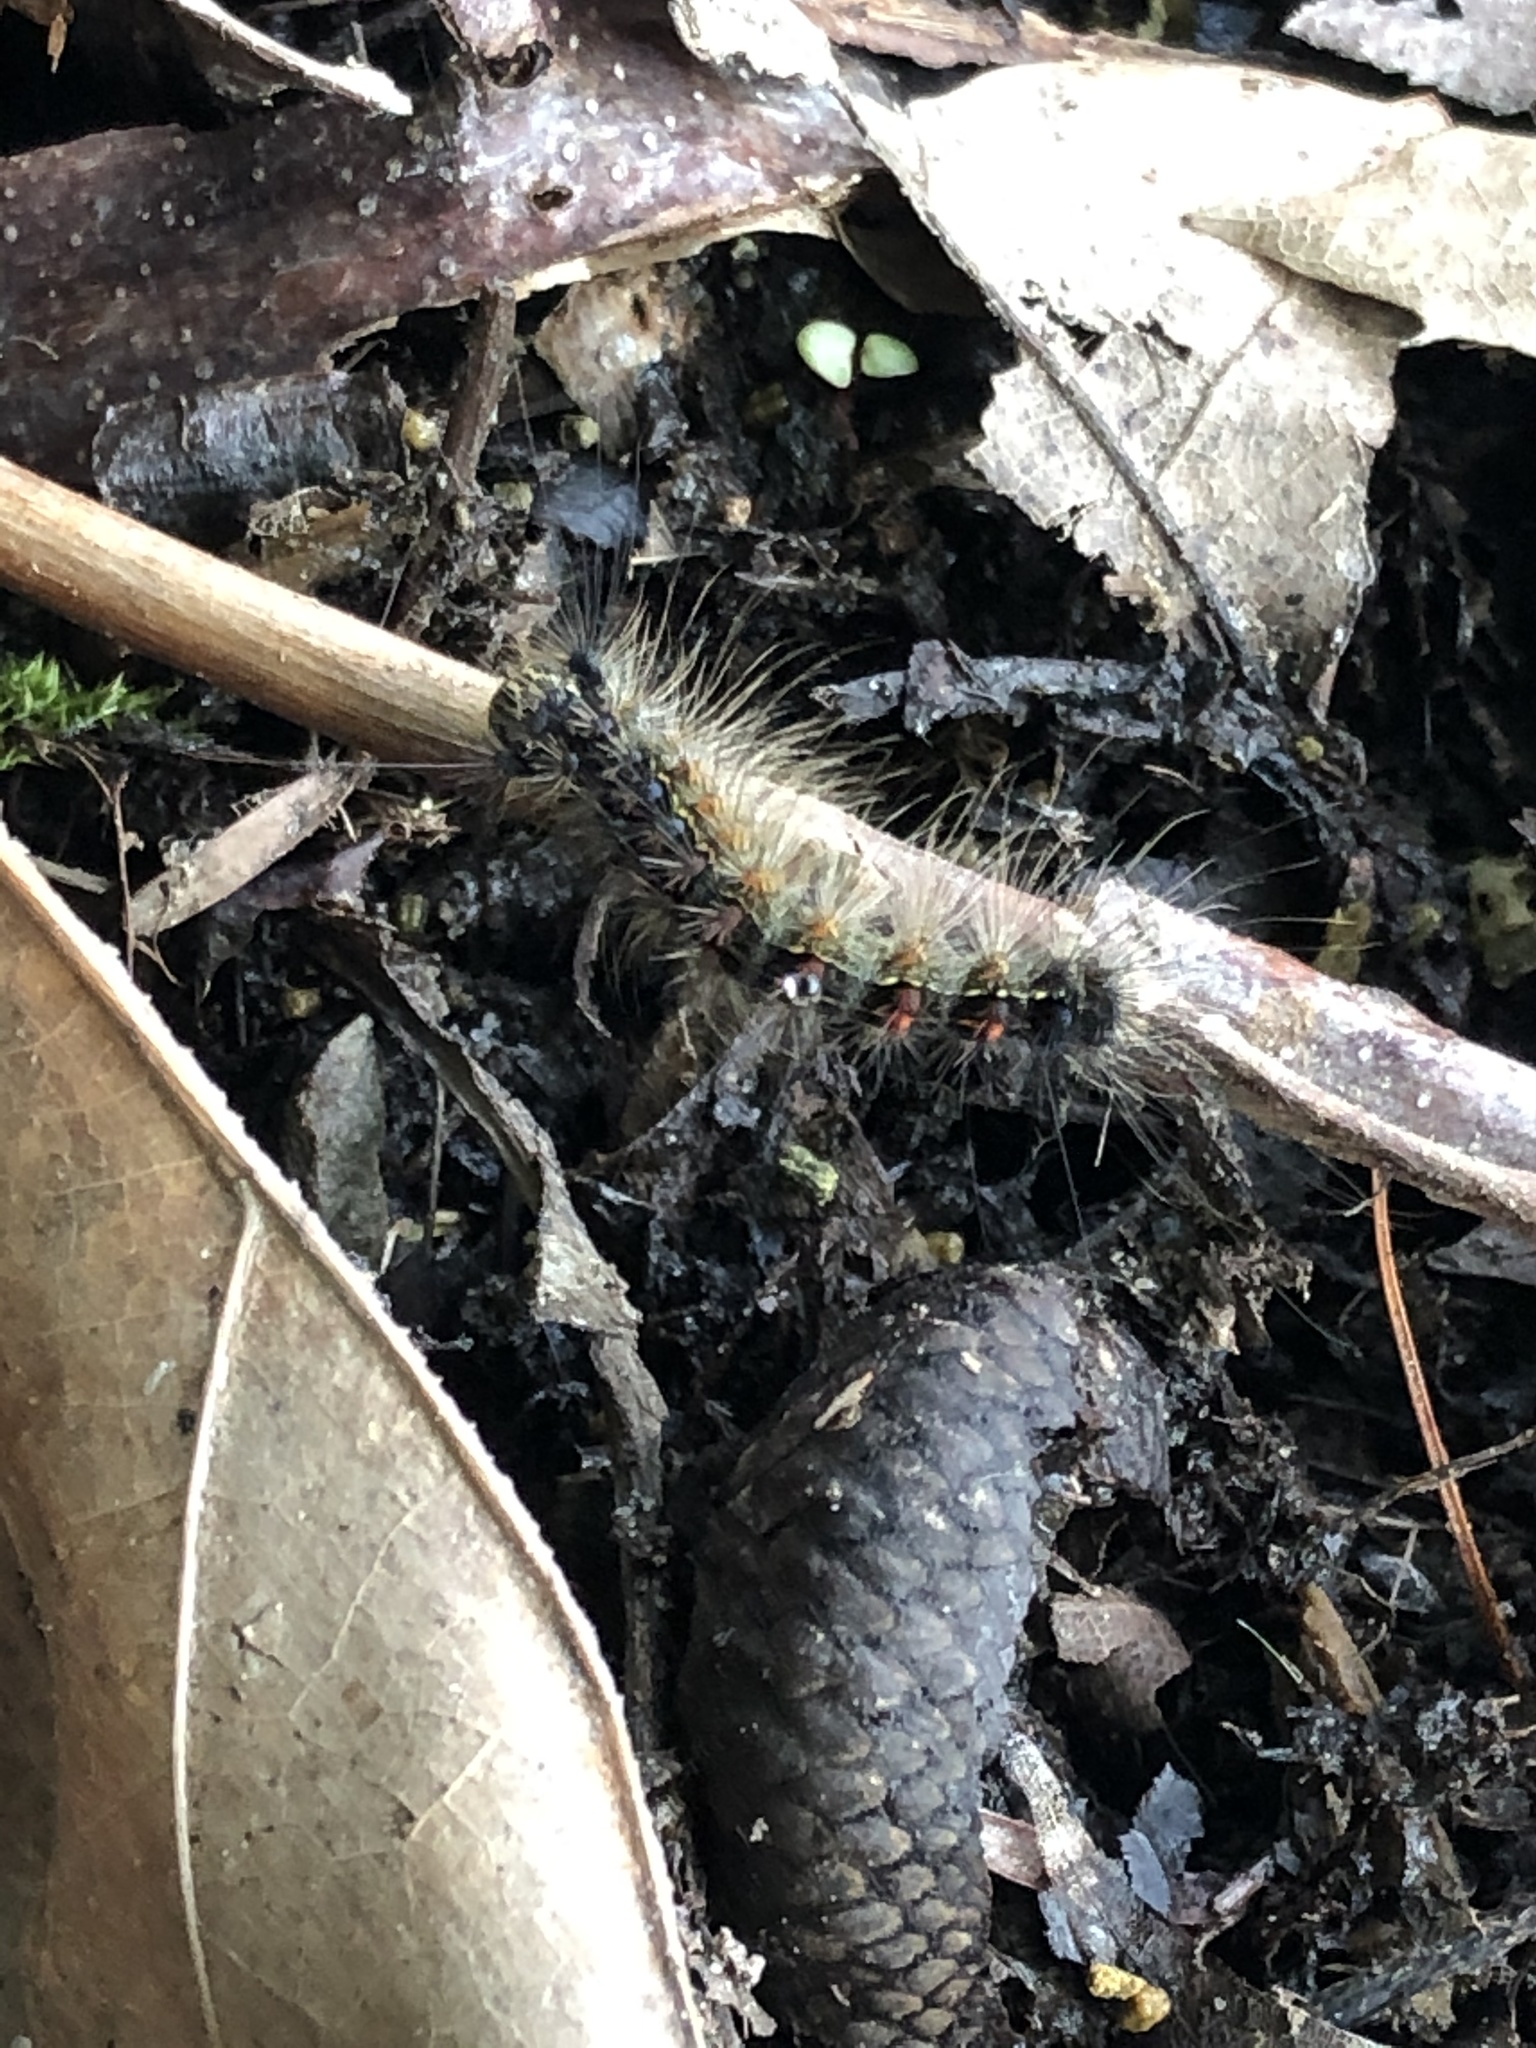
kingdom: Animalia
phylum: Arthropoda
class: Insecta
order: Lepidoptera
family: Erebidae
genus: Lymantria
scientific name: Lymantria dispar
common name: Gypsy moth
